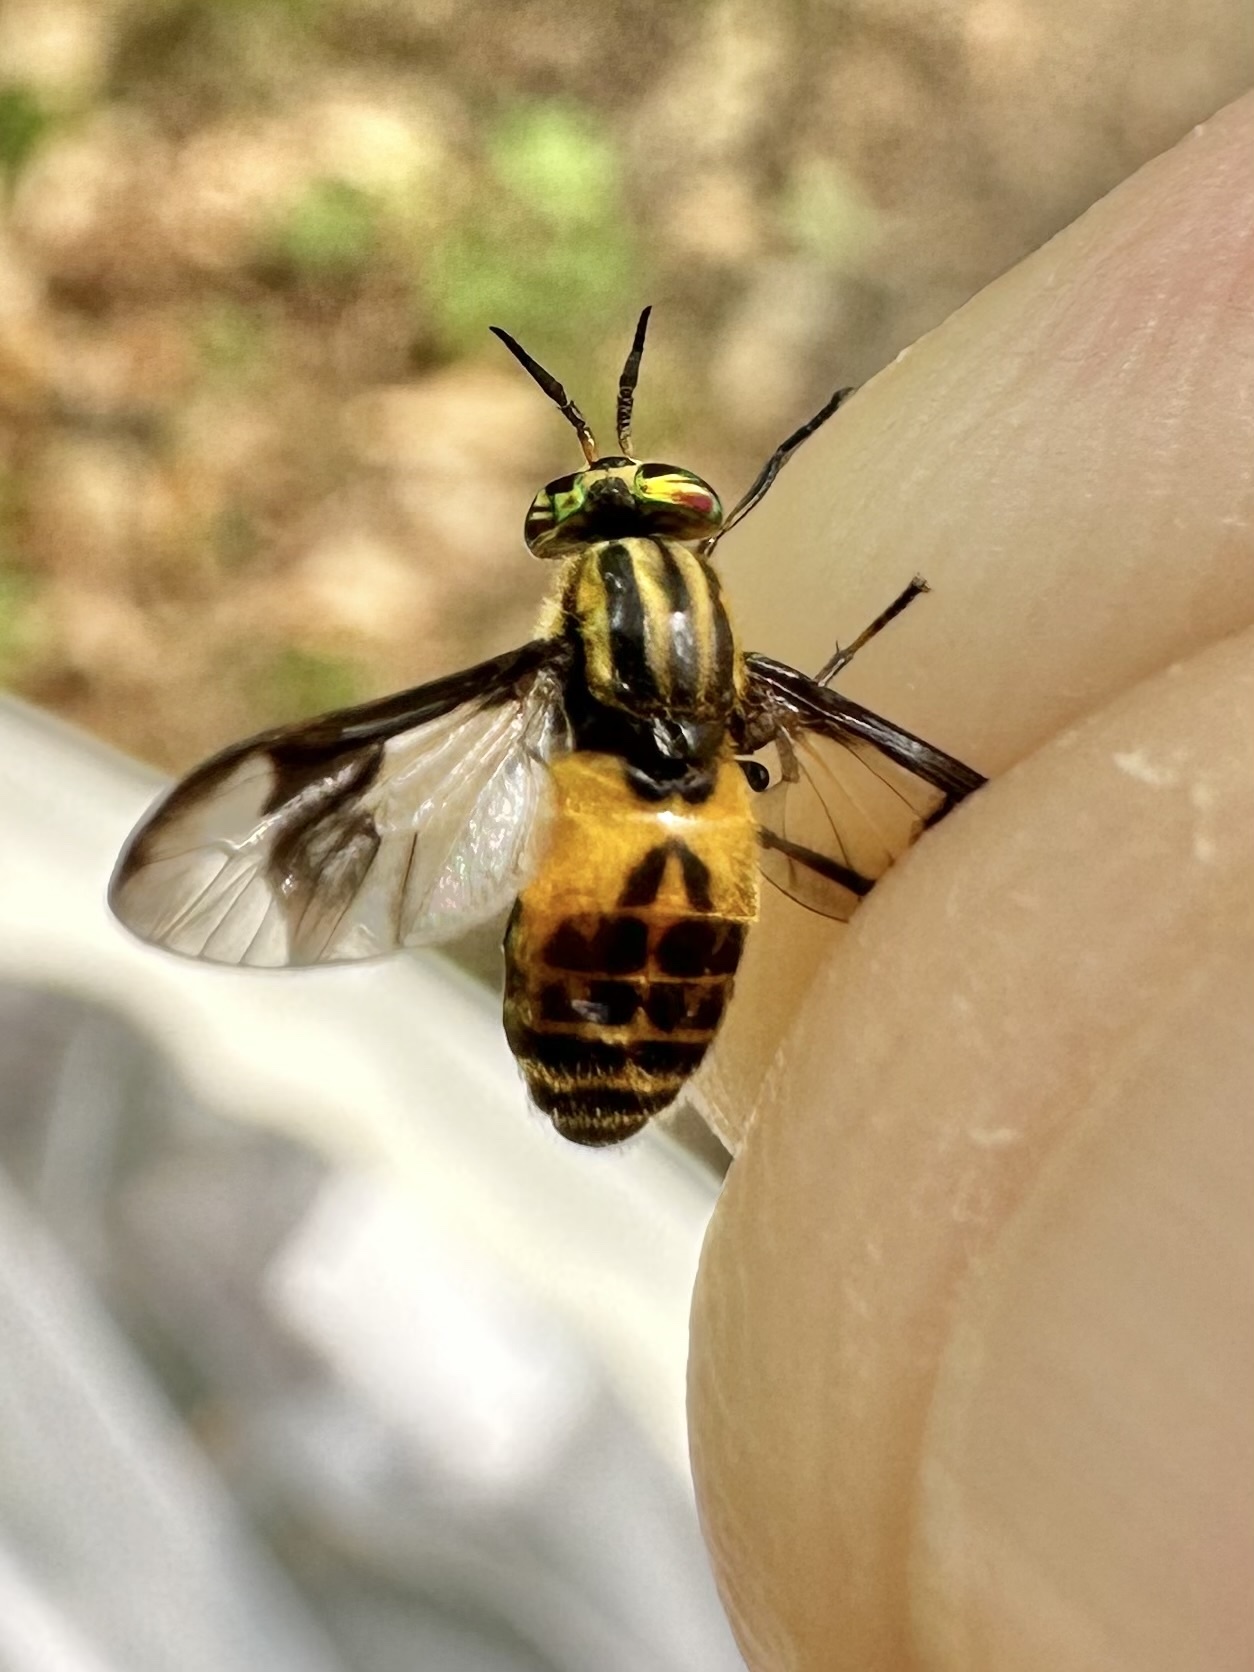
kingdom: Animalia
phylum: Arthropoda
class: Insecta
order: Diptera
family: Tabanidae
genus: Chrysops
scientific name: Chrysops geminatus
